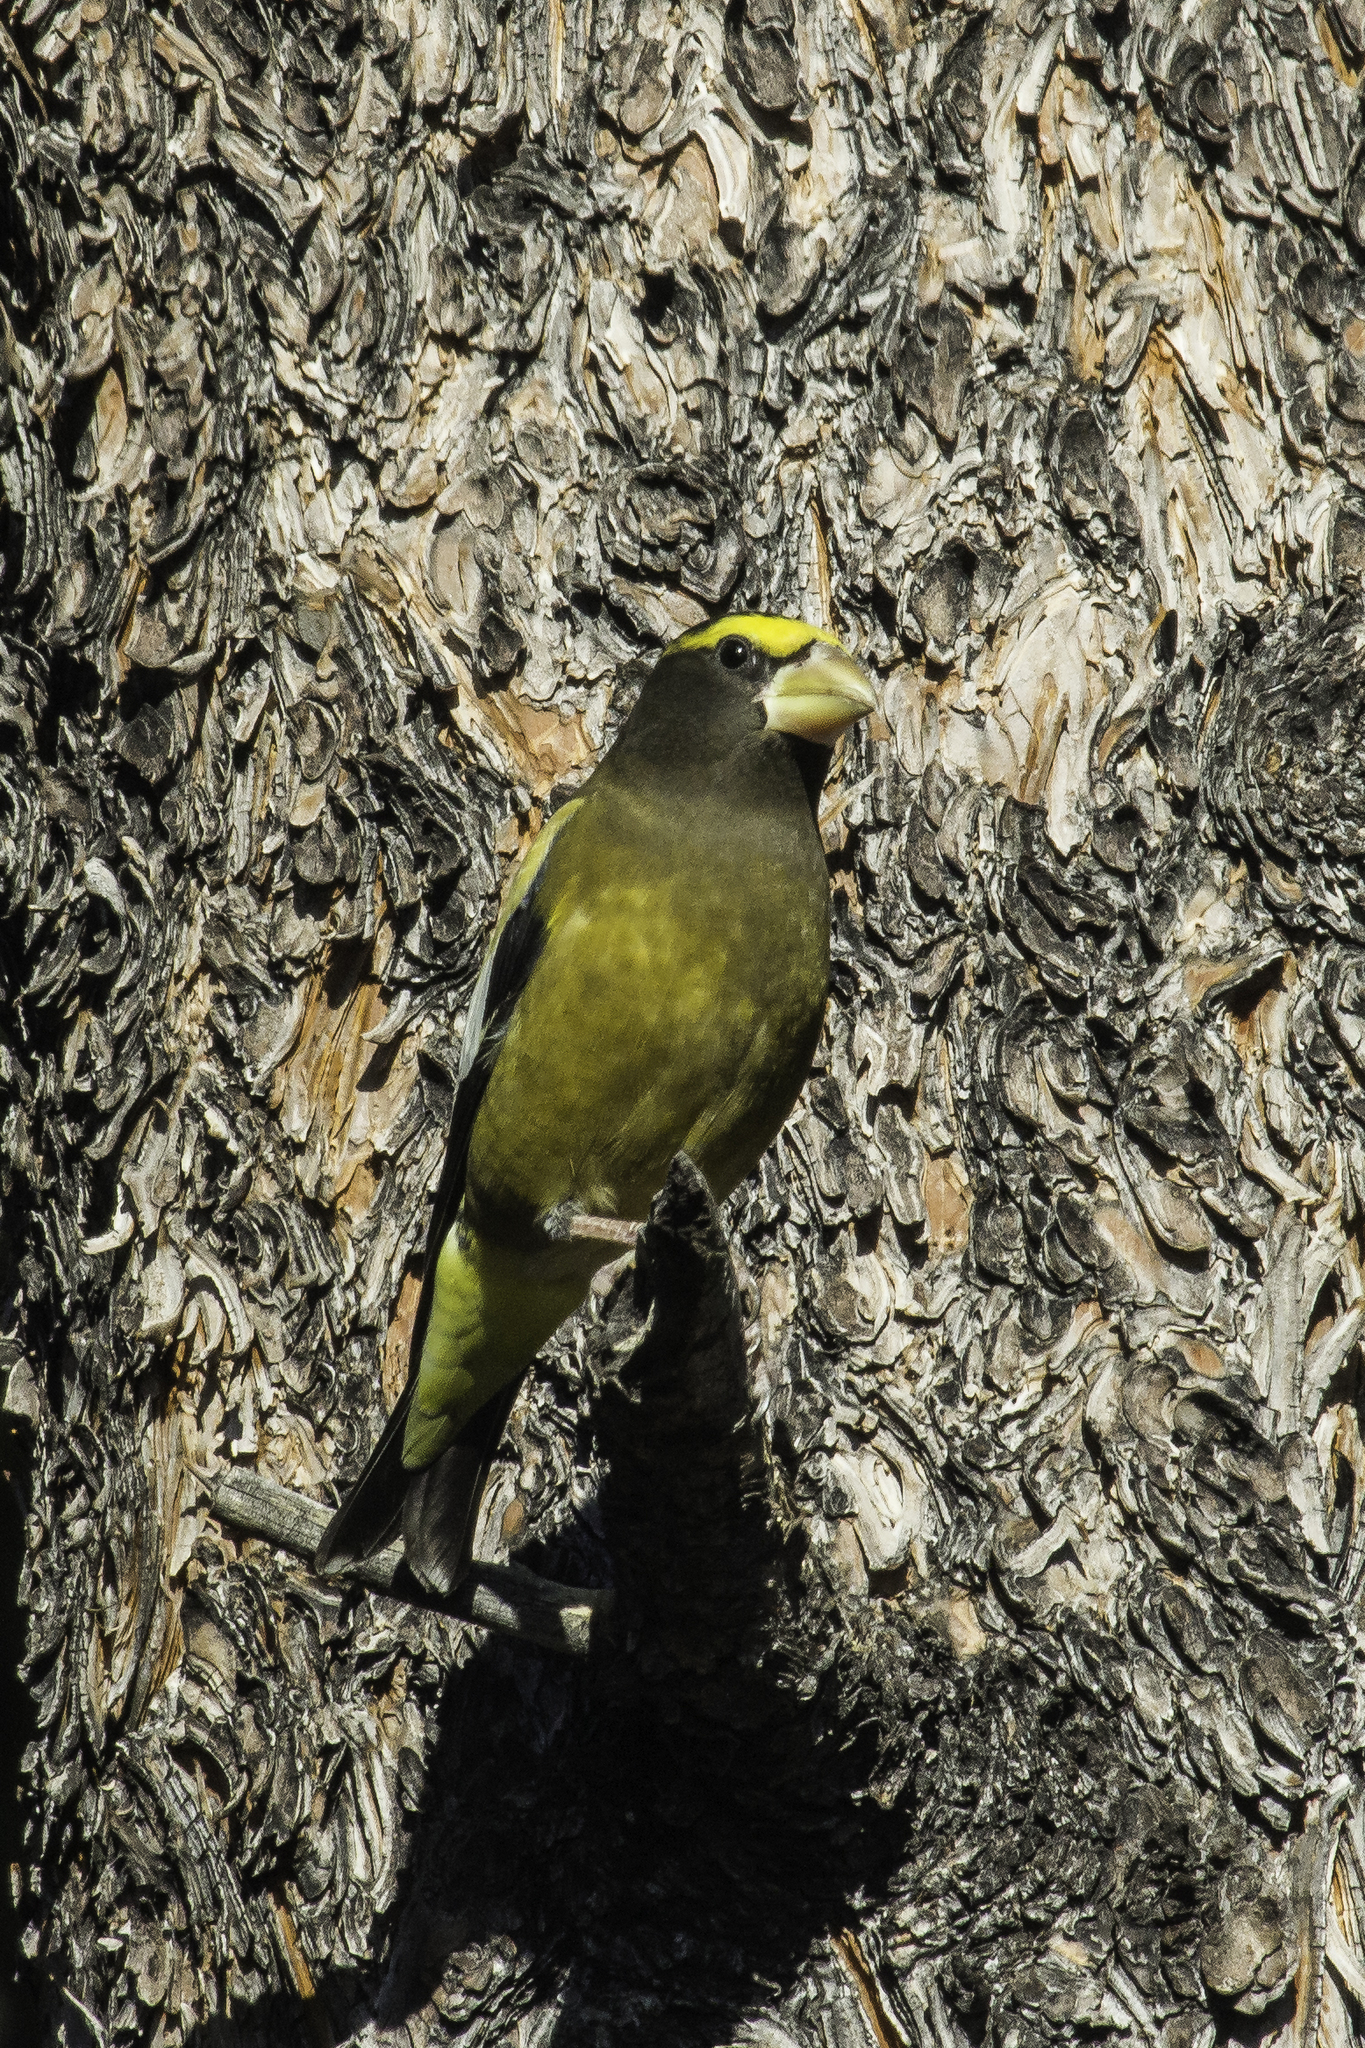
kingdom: Animalia
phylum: Chordata
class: Aves
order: Passeriformes
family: Fringillidae
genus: Hesperiphona
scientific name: Hesperiphona vespertina
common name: Evening grosbeak
